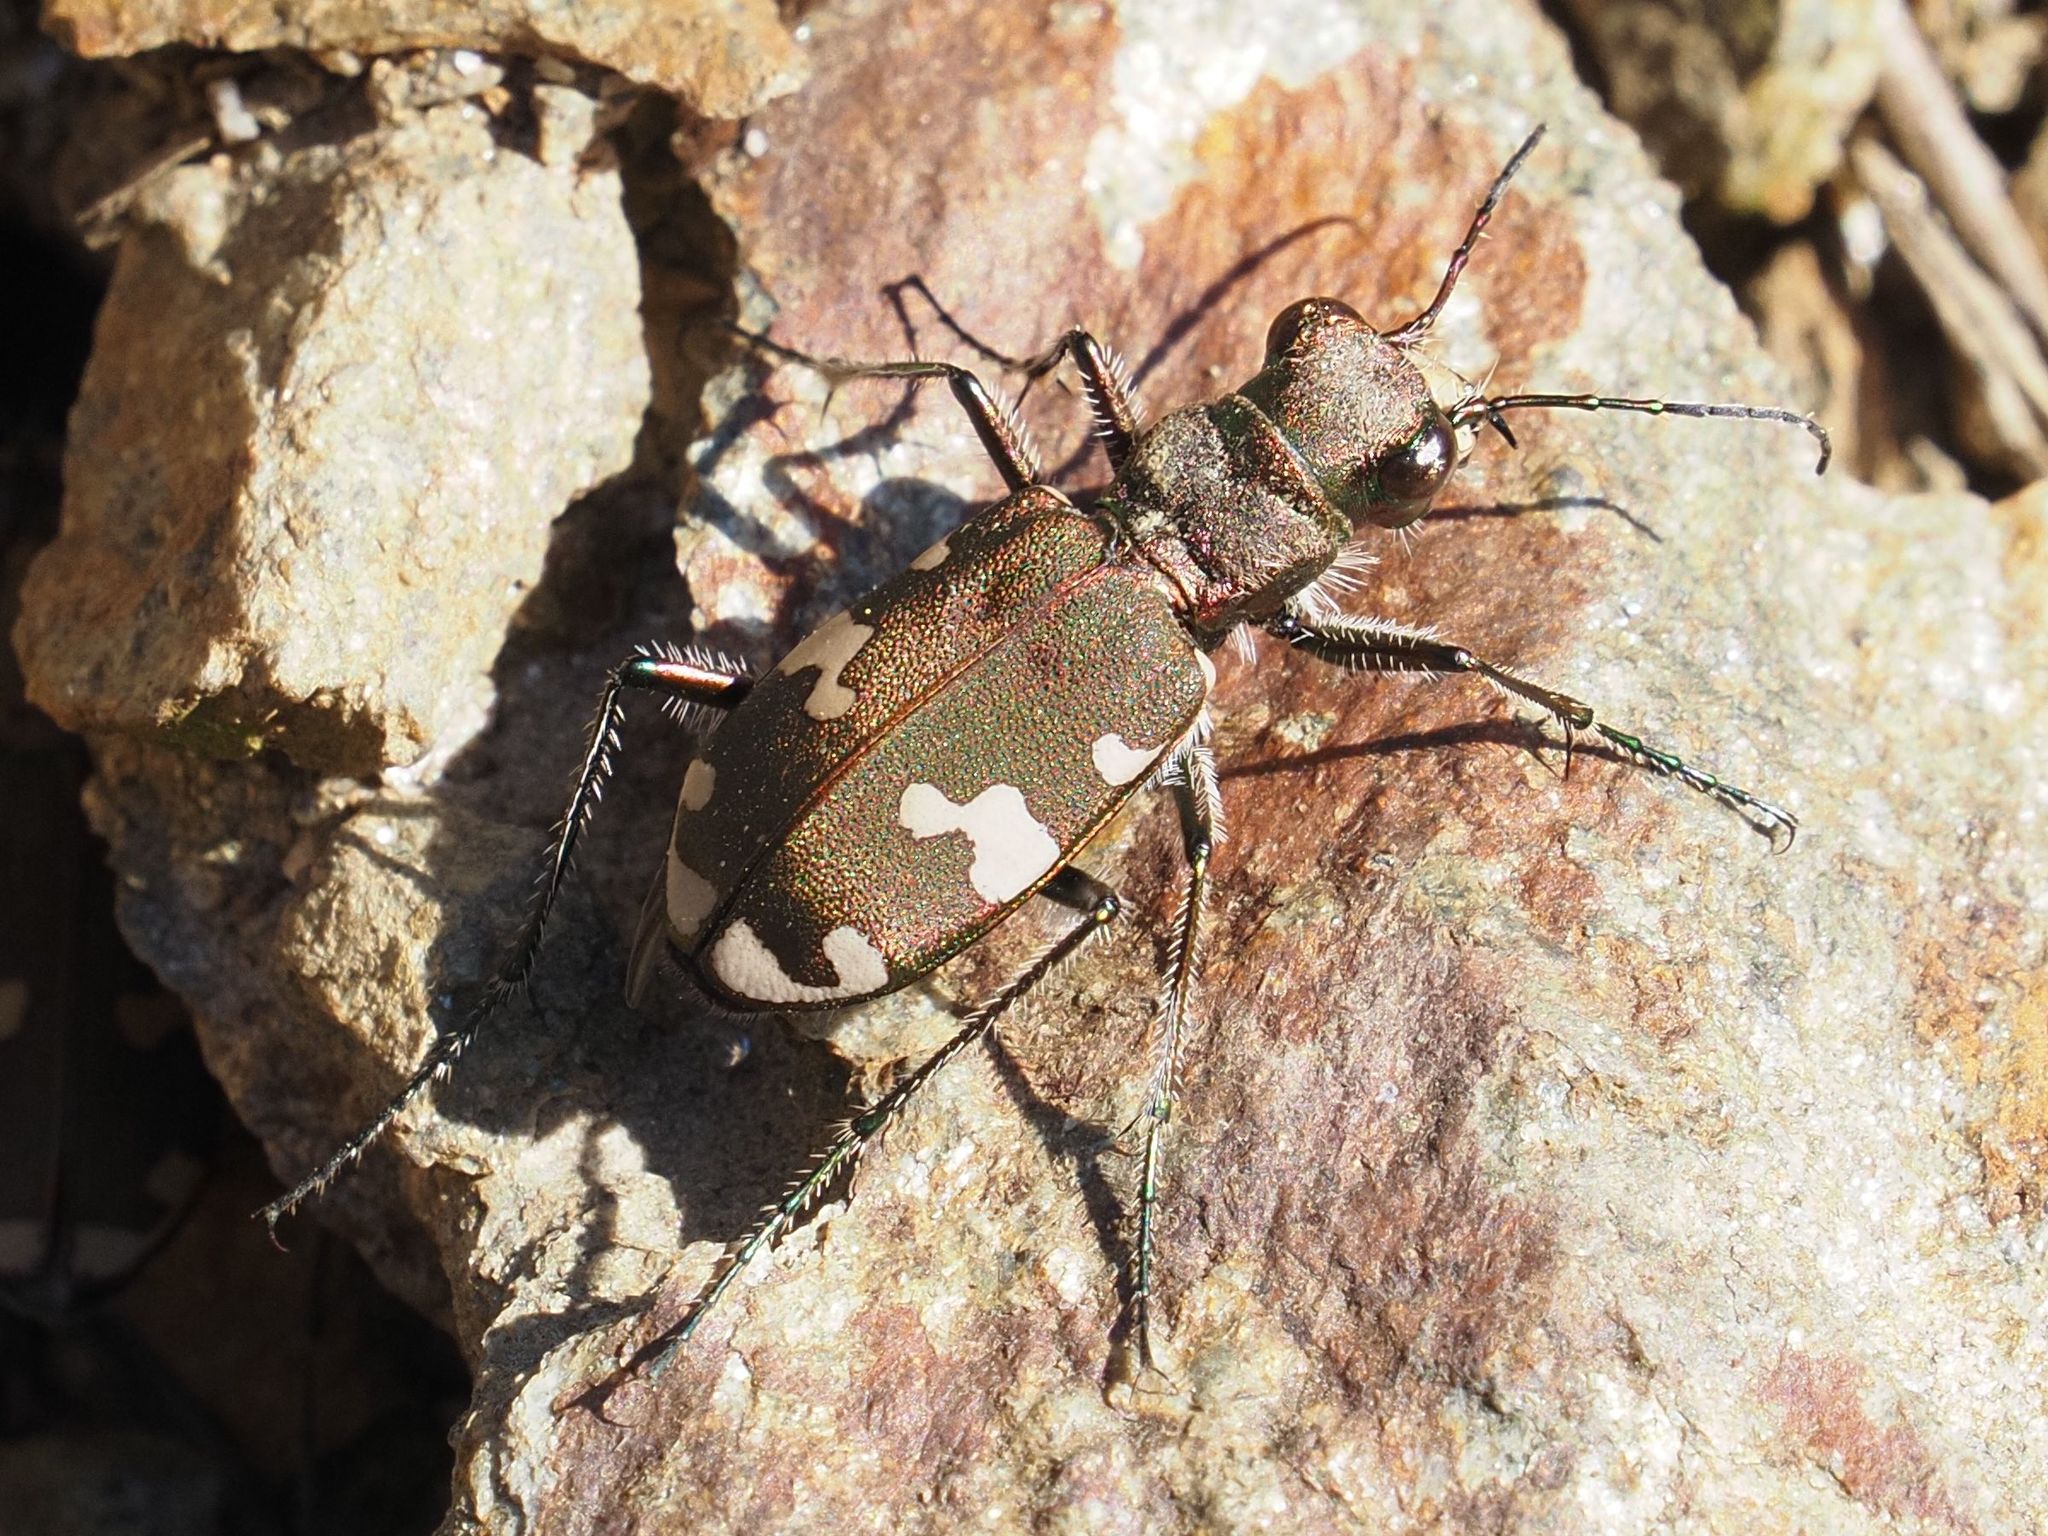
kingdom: Animalia
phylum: Arthropoda
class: Insecta
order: Coleoptera
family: Carabidae
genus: Cicindela
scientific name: Cicindela sylvicola
